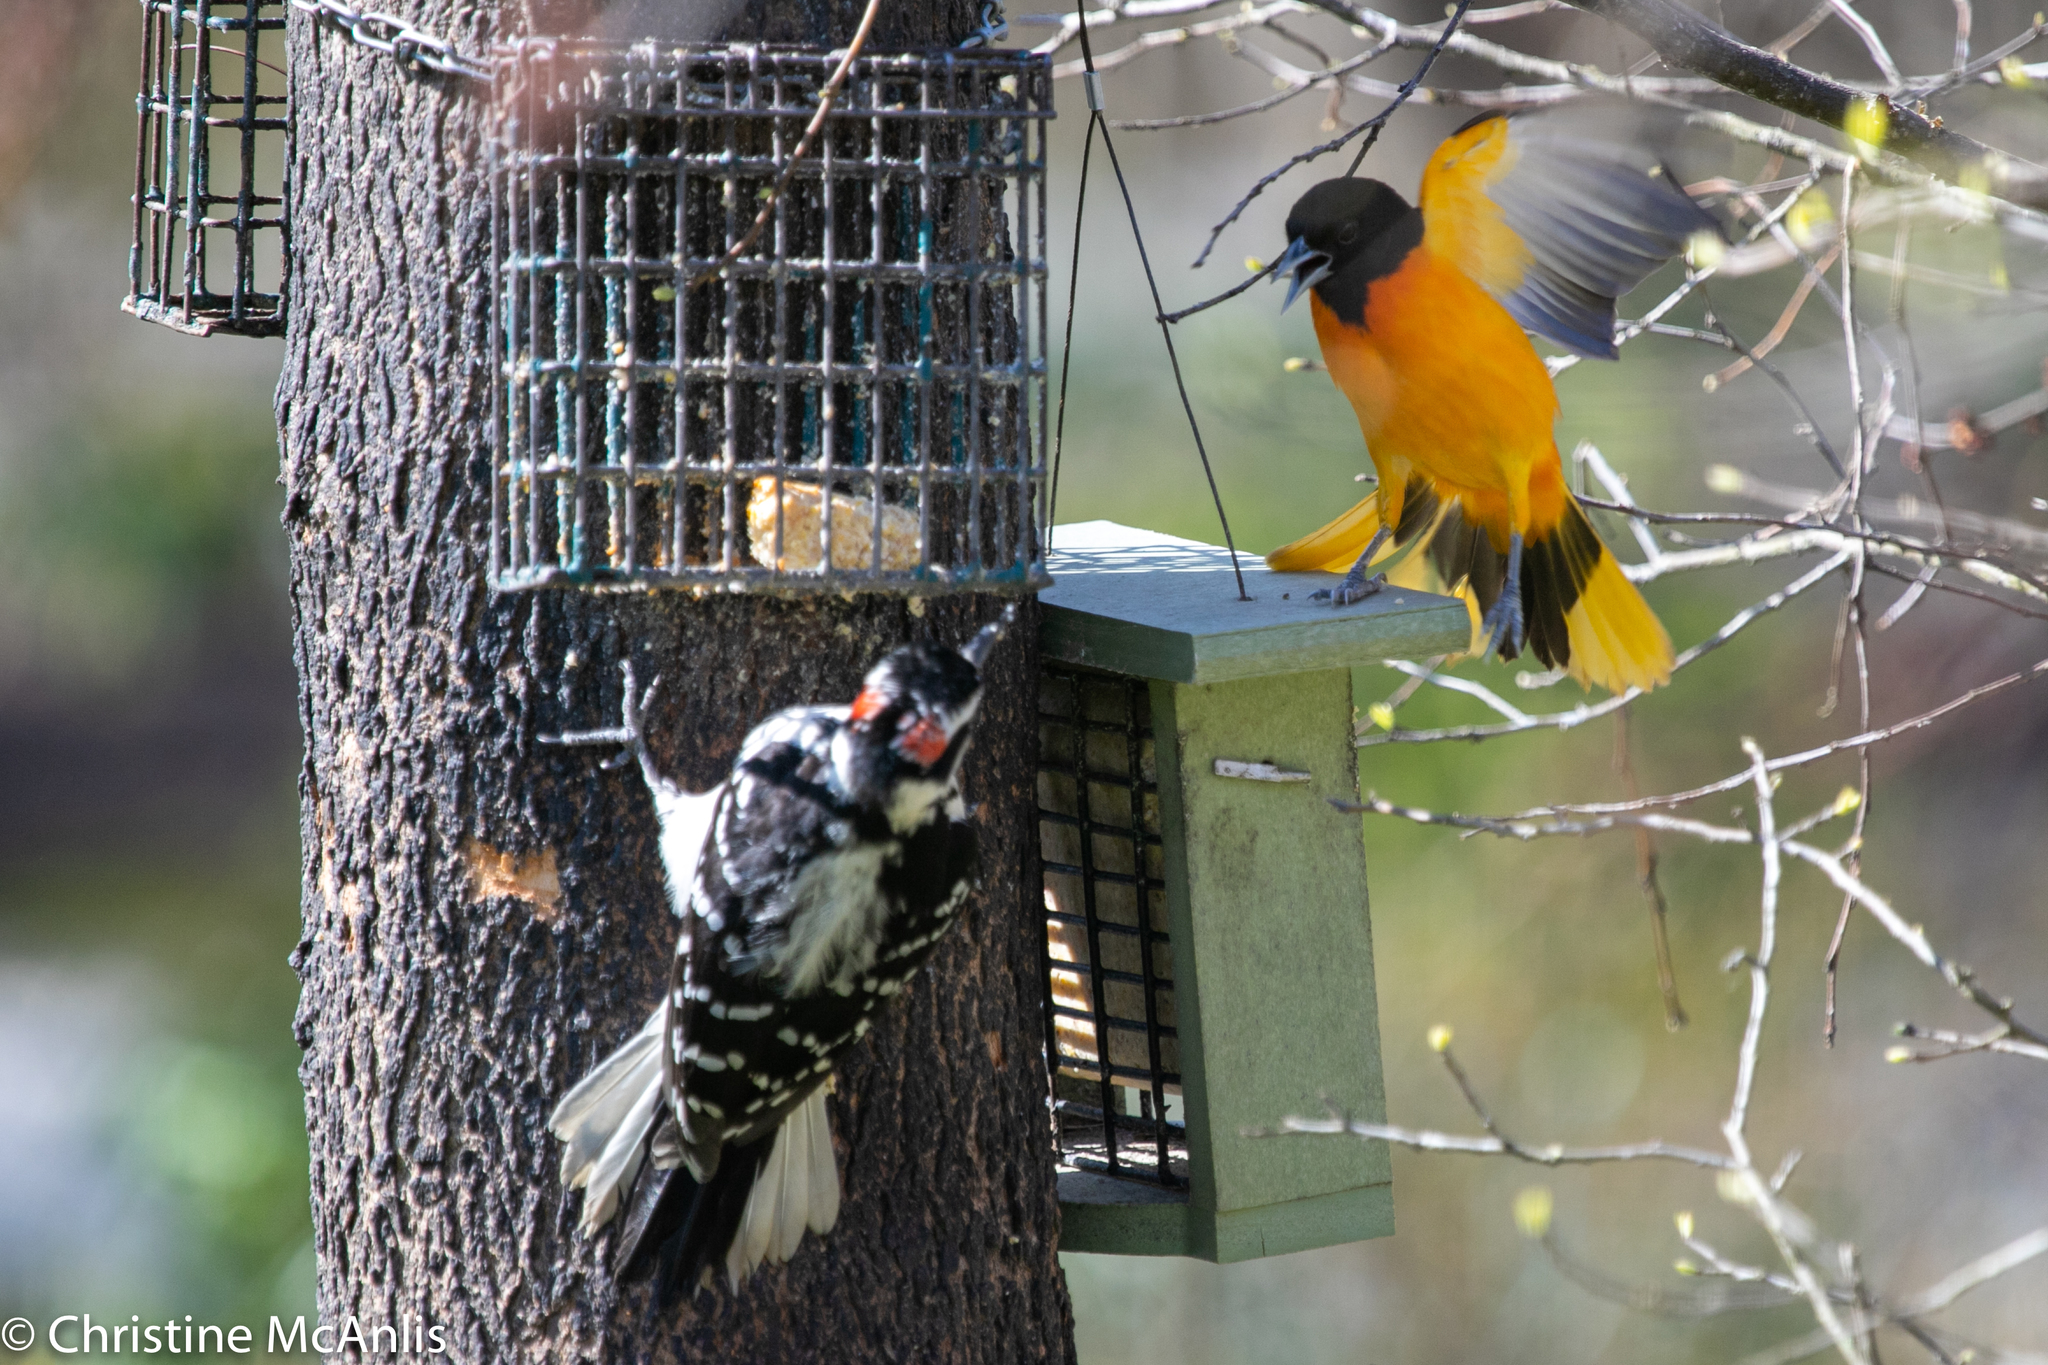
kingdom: Animalia
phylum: Chordata
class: Aves
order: Passeriformes
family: Icteridae
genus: Icterus
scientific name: Icterus galbula
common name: Baltimore oriole
